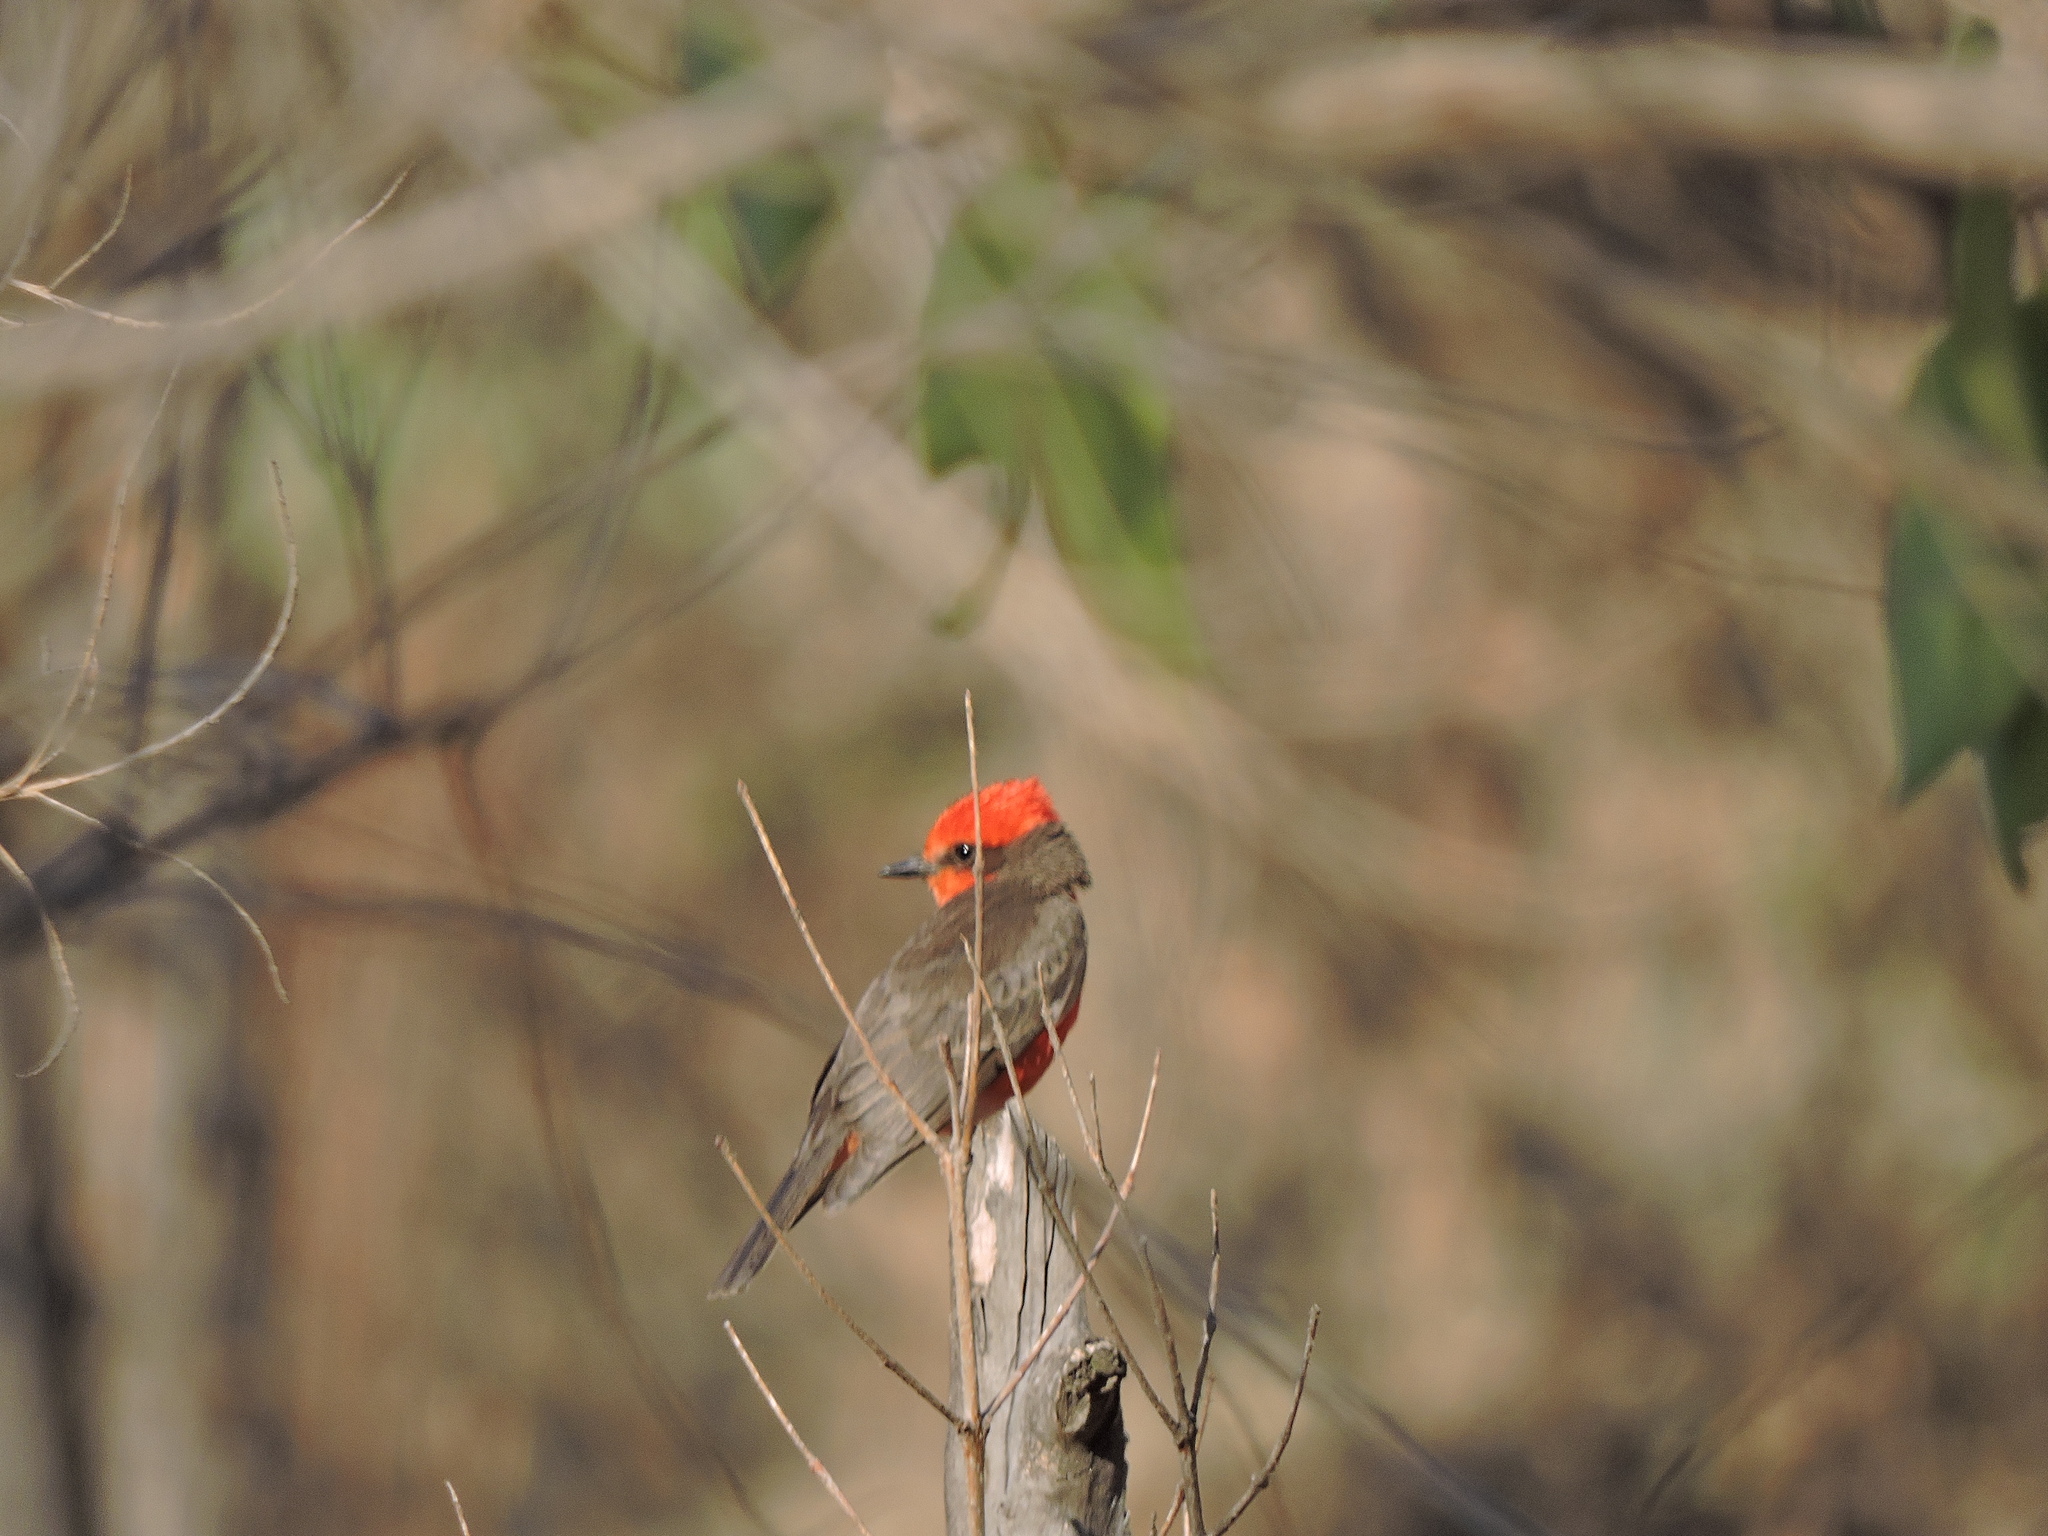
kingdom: Animalia
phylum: Chordata
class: Aves
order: Passeriformes
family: Tyrannidae
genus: Pyrocephalus
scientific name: Pyrocephalus rubinus
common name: Vermilion flycatcher
